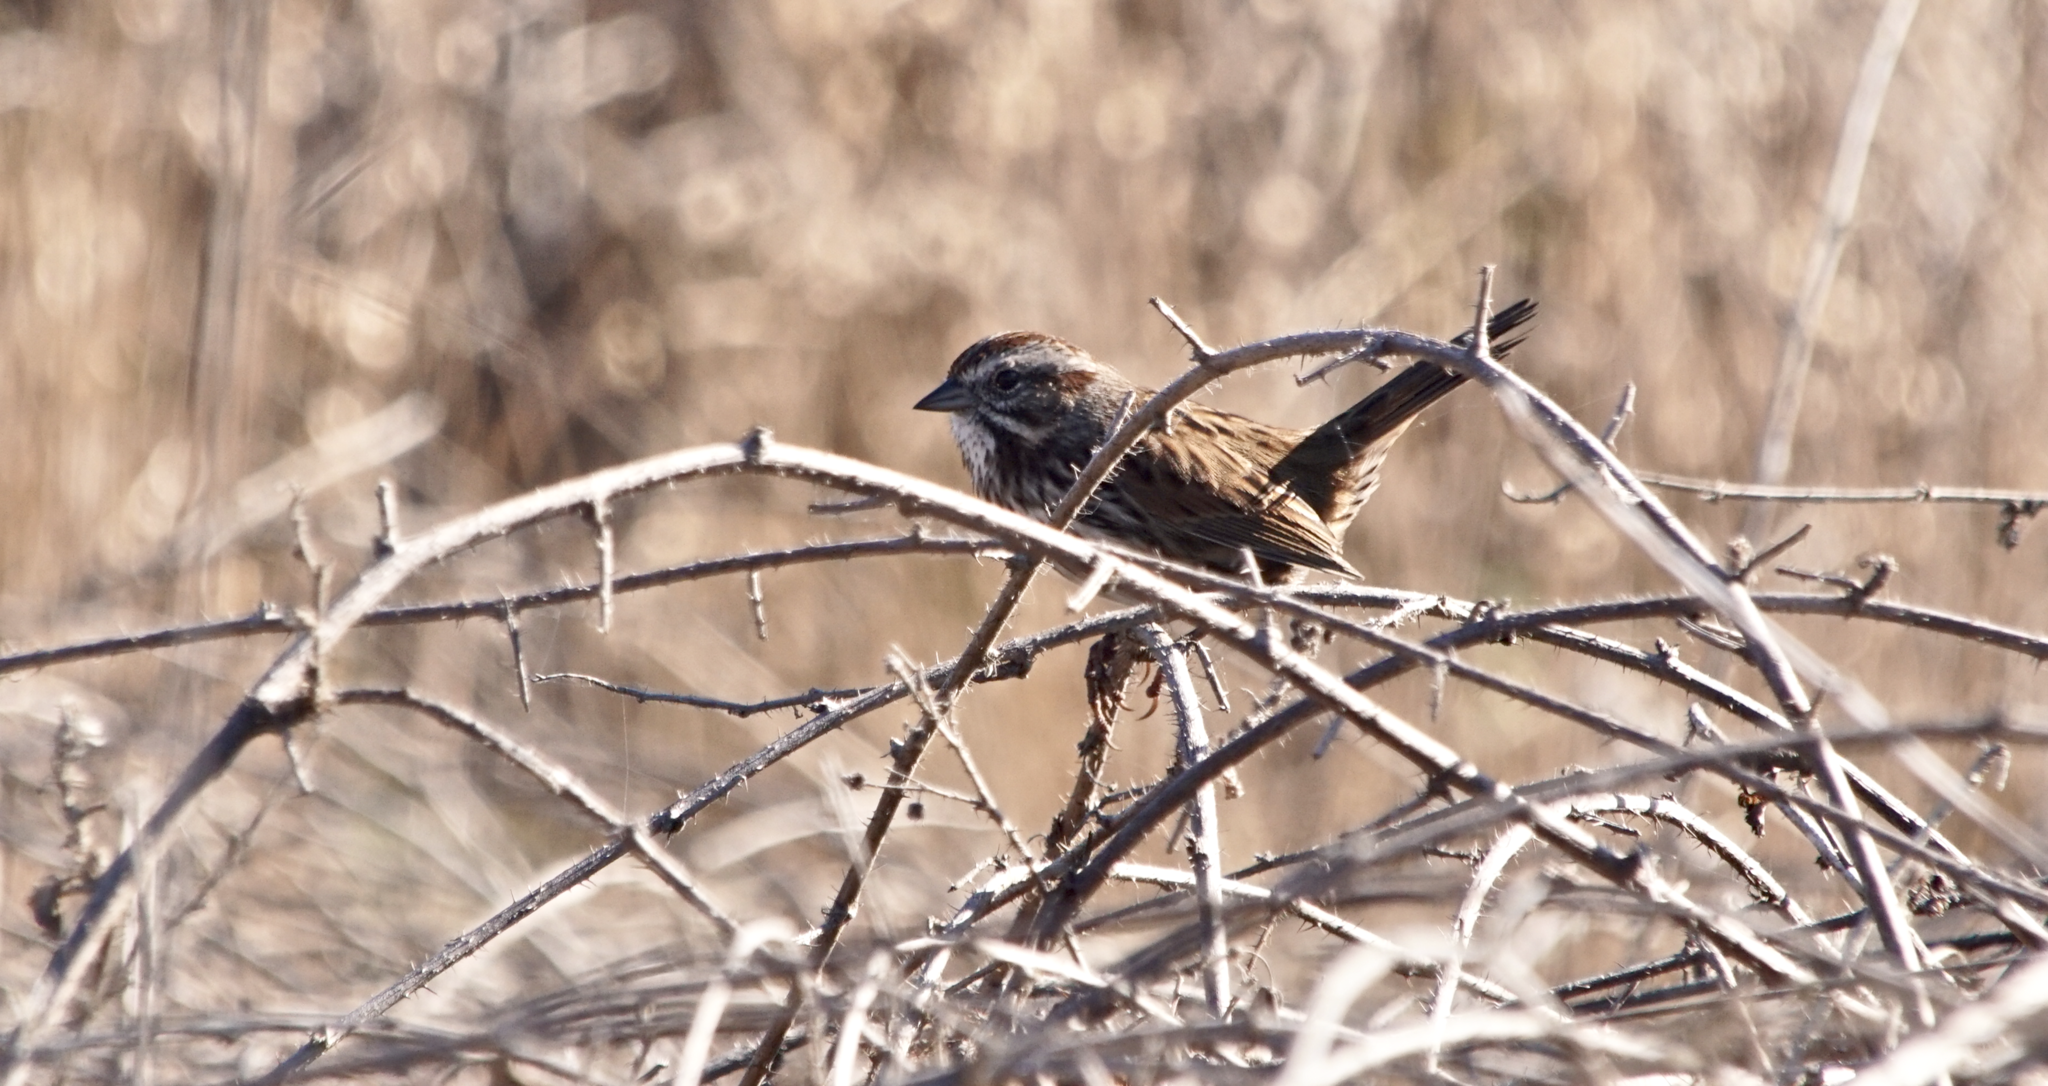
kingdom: Animalia
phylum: Chordata
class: Aves
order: Passeriformes
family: Passerellidae
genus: Melospiza
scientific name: Melospiza melodia
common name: Song sparrow
